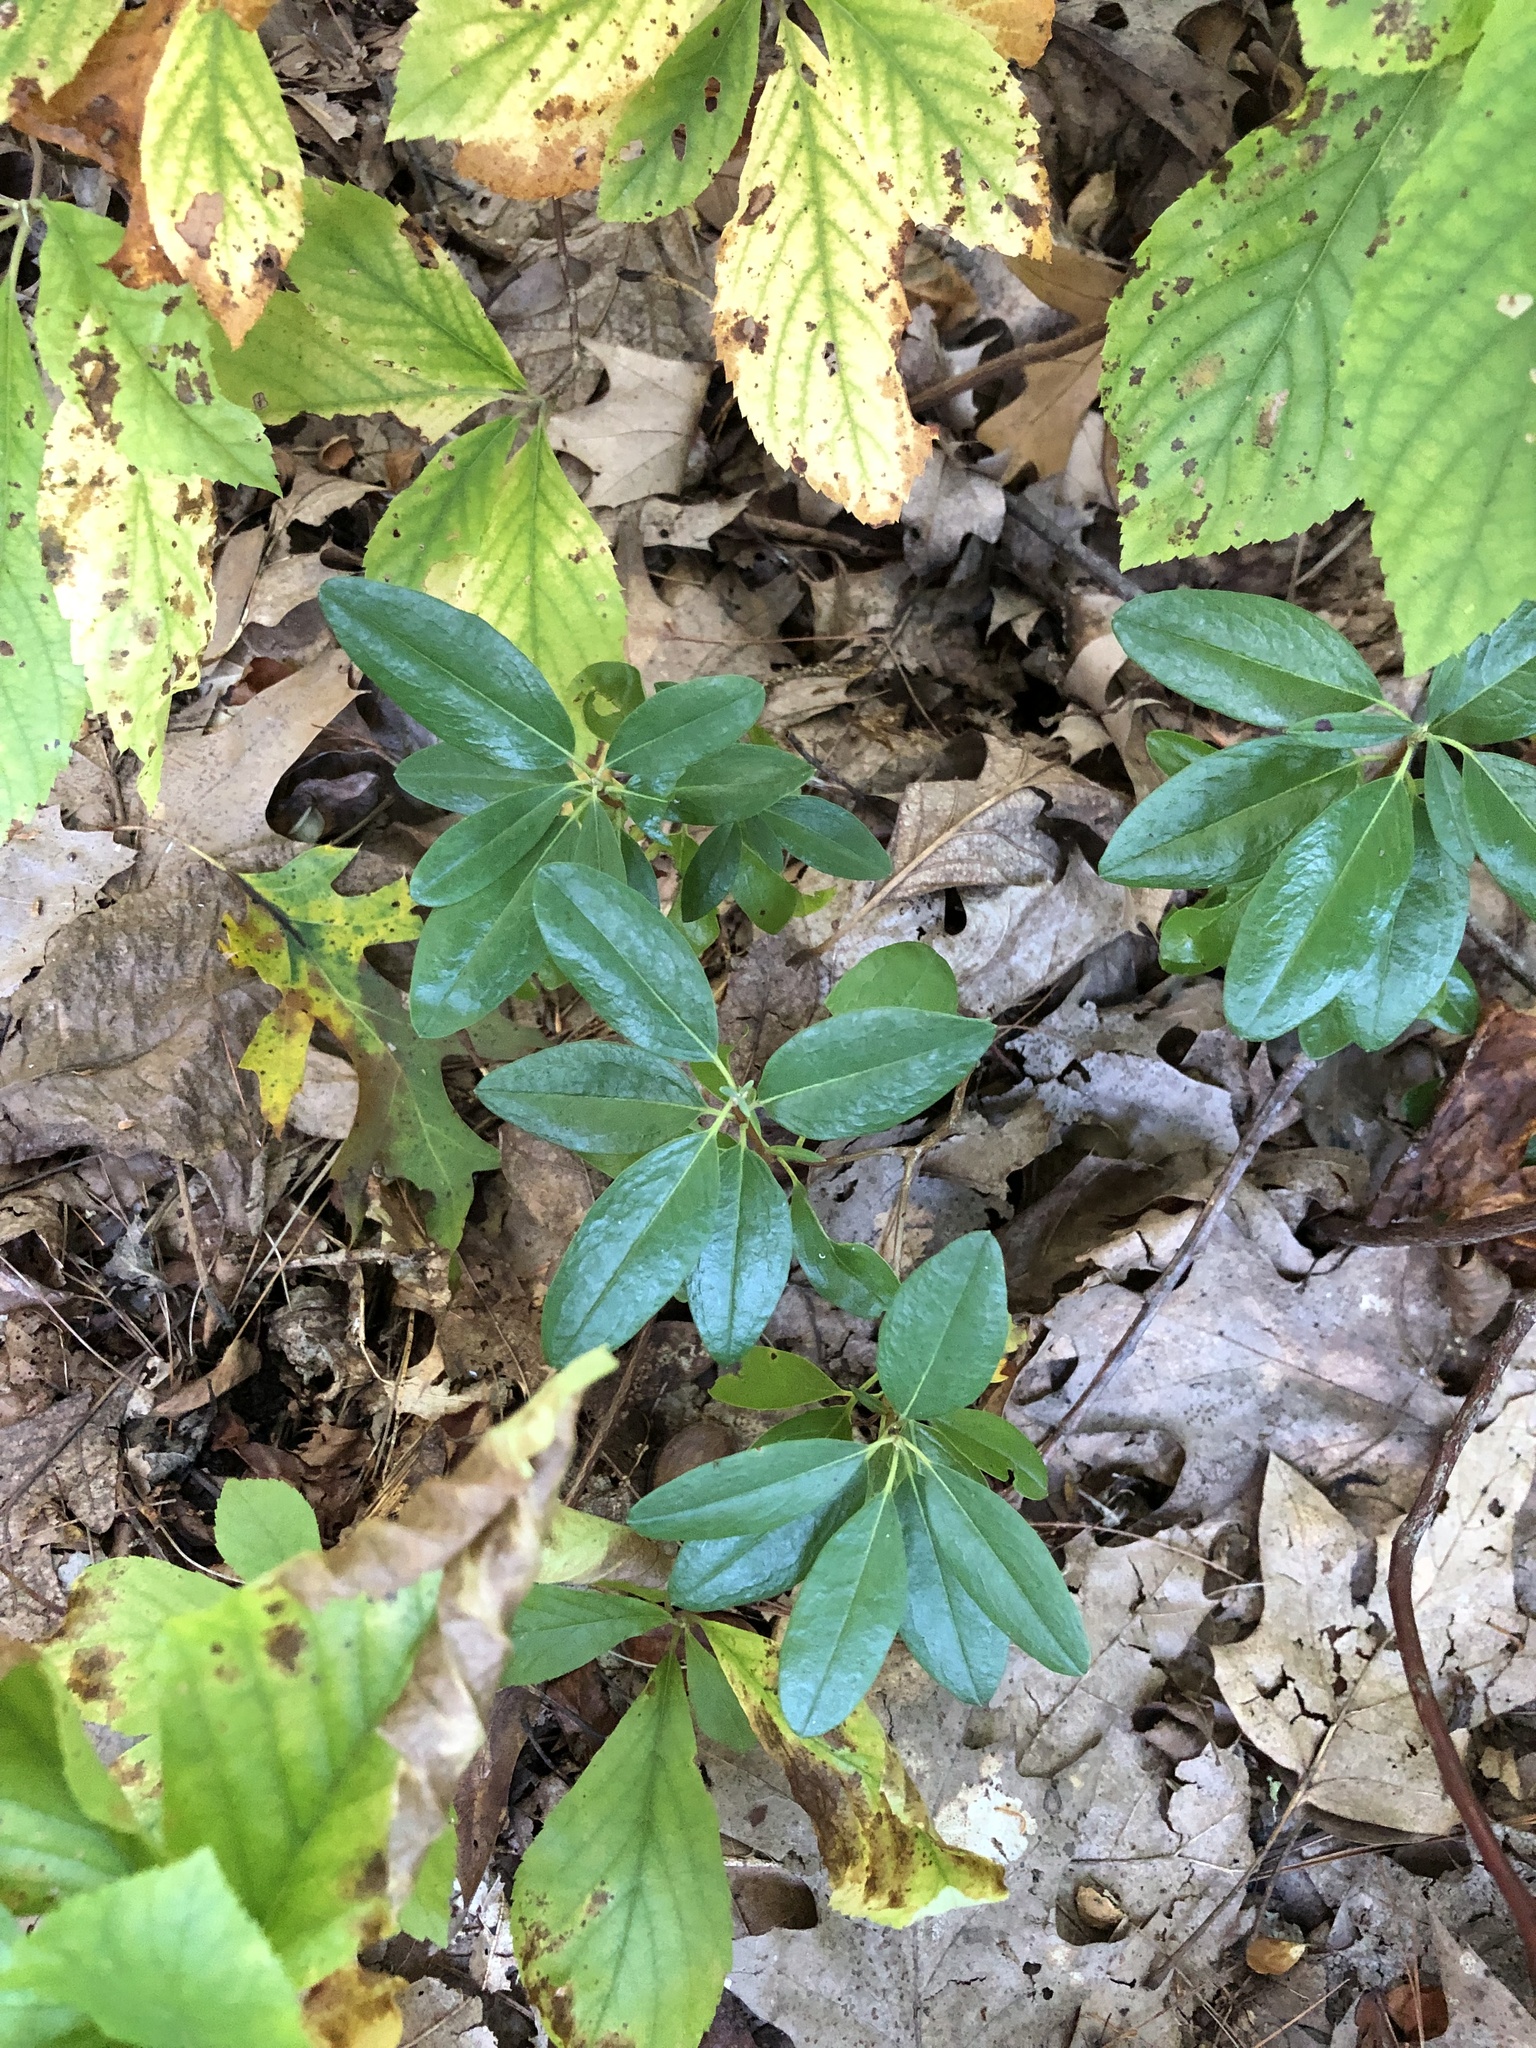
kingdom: Plantae
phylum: Tracheophyta
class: Magnoliopsida
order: Ericales
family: Ericaceae
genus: Kalmia
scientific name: Kalmia angustifolia
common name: Sheep-laurel
